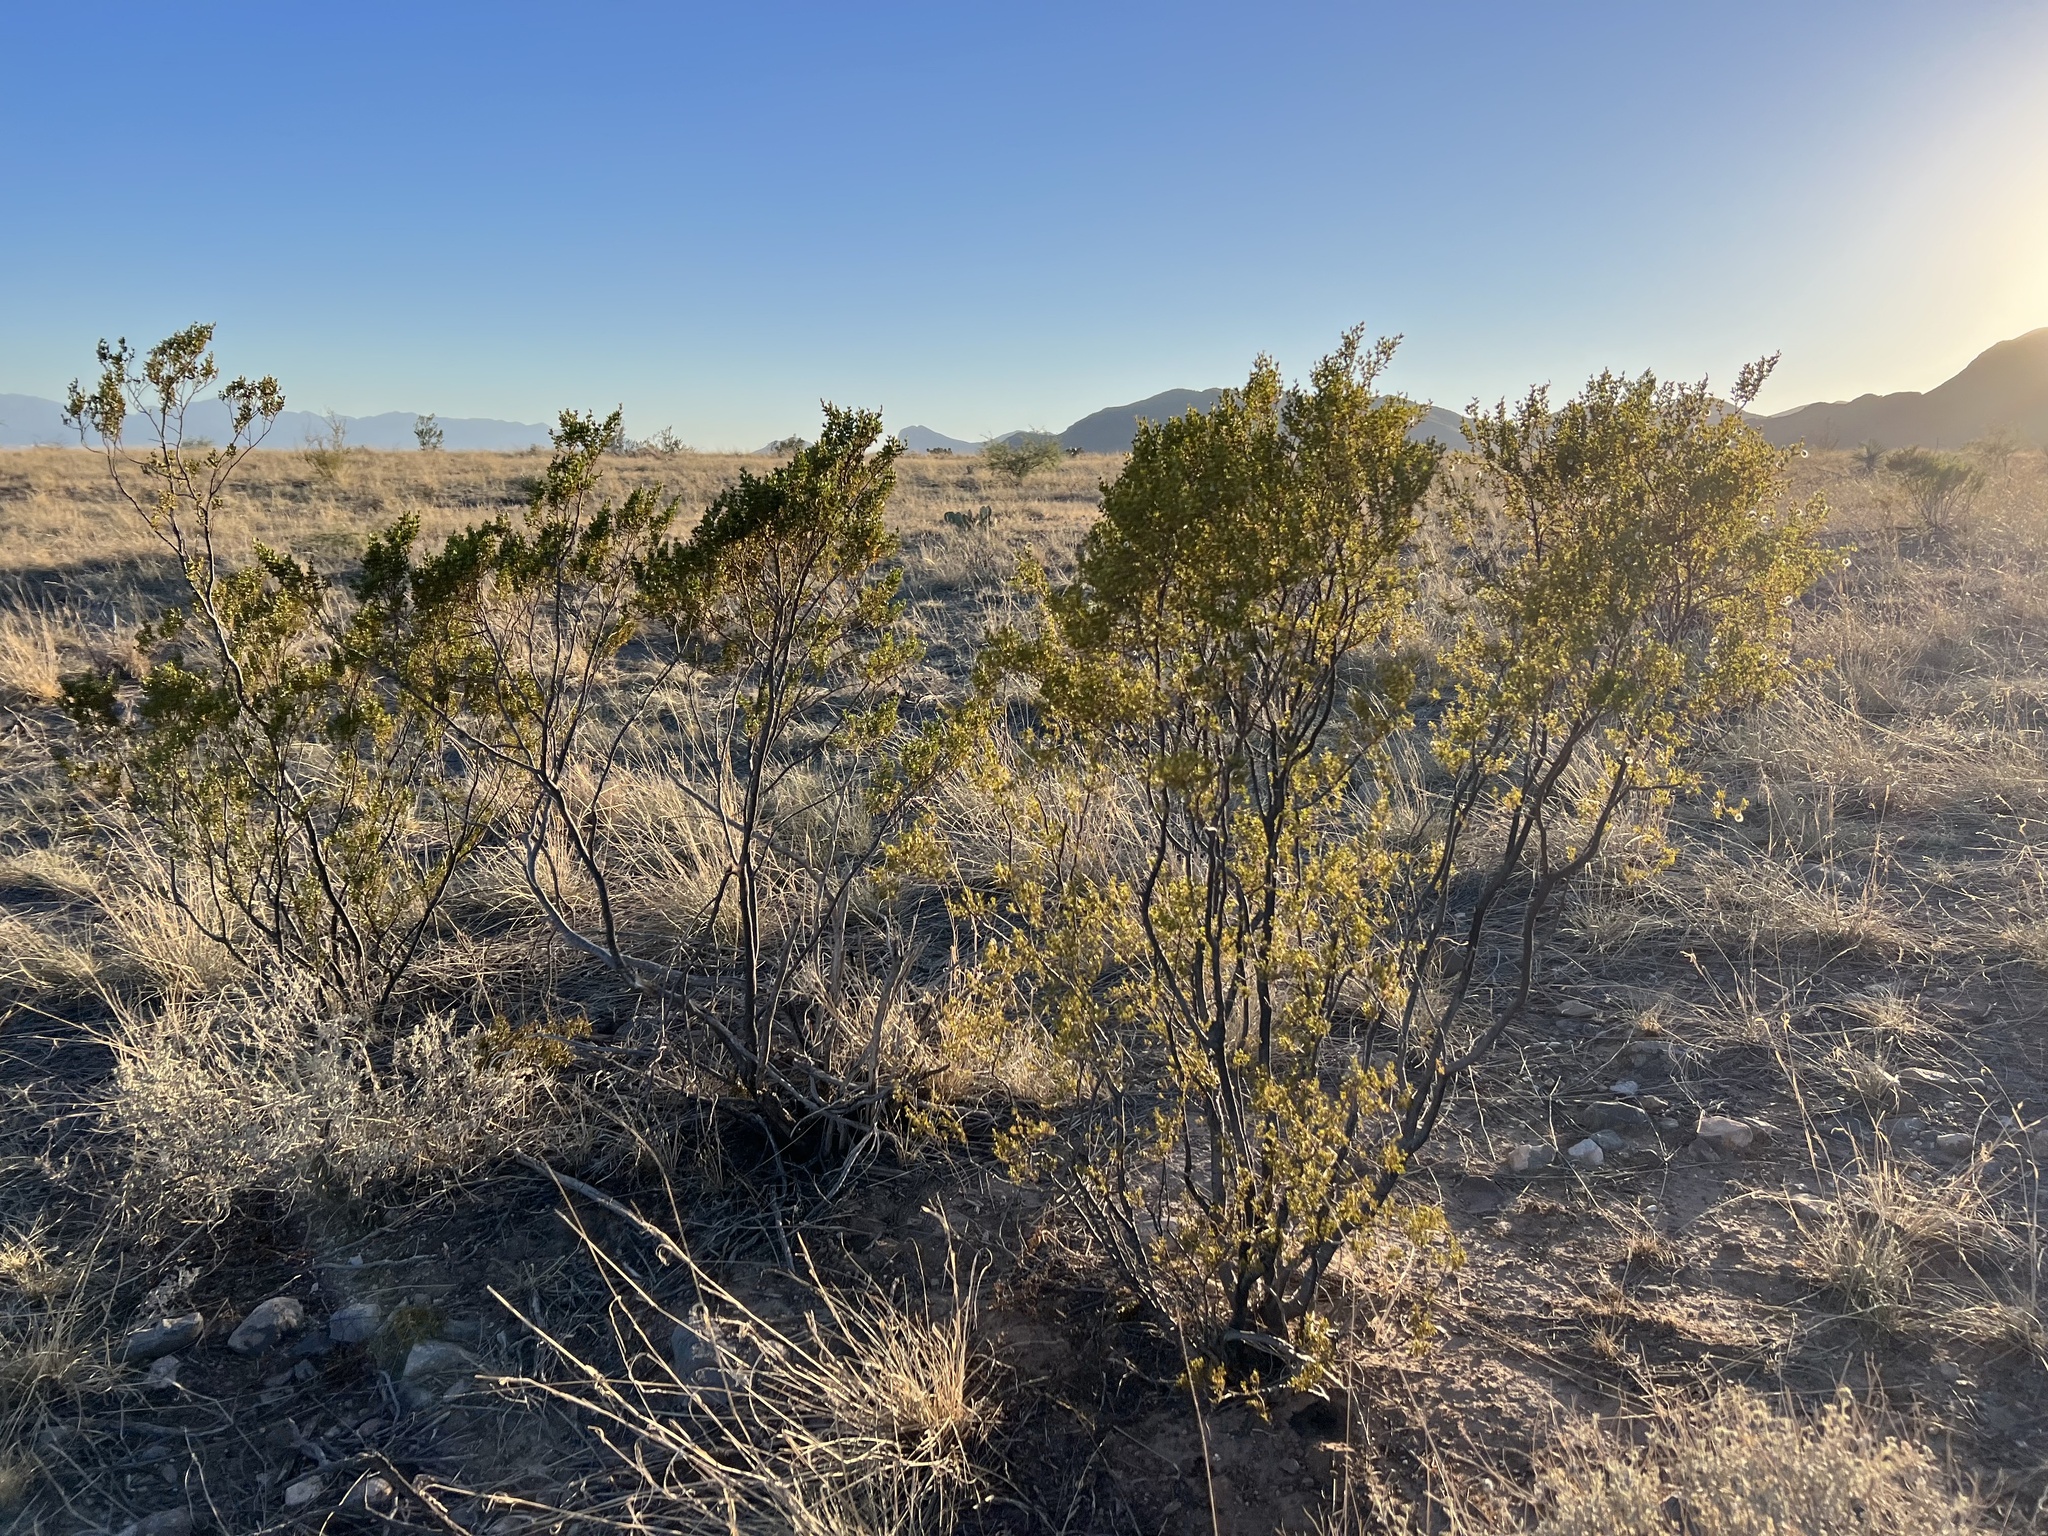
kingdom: Plantae
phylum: Tracheophyta
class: Magnoliopsida
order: Zygophyllales
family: Zygophyllaceae
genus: Larrea
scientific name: Larrea tridentata
